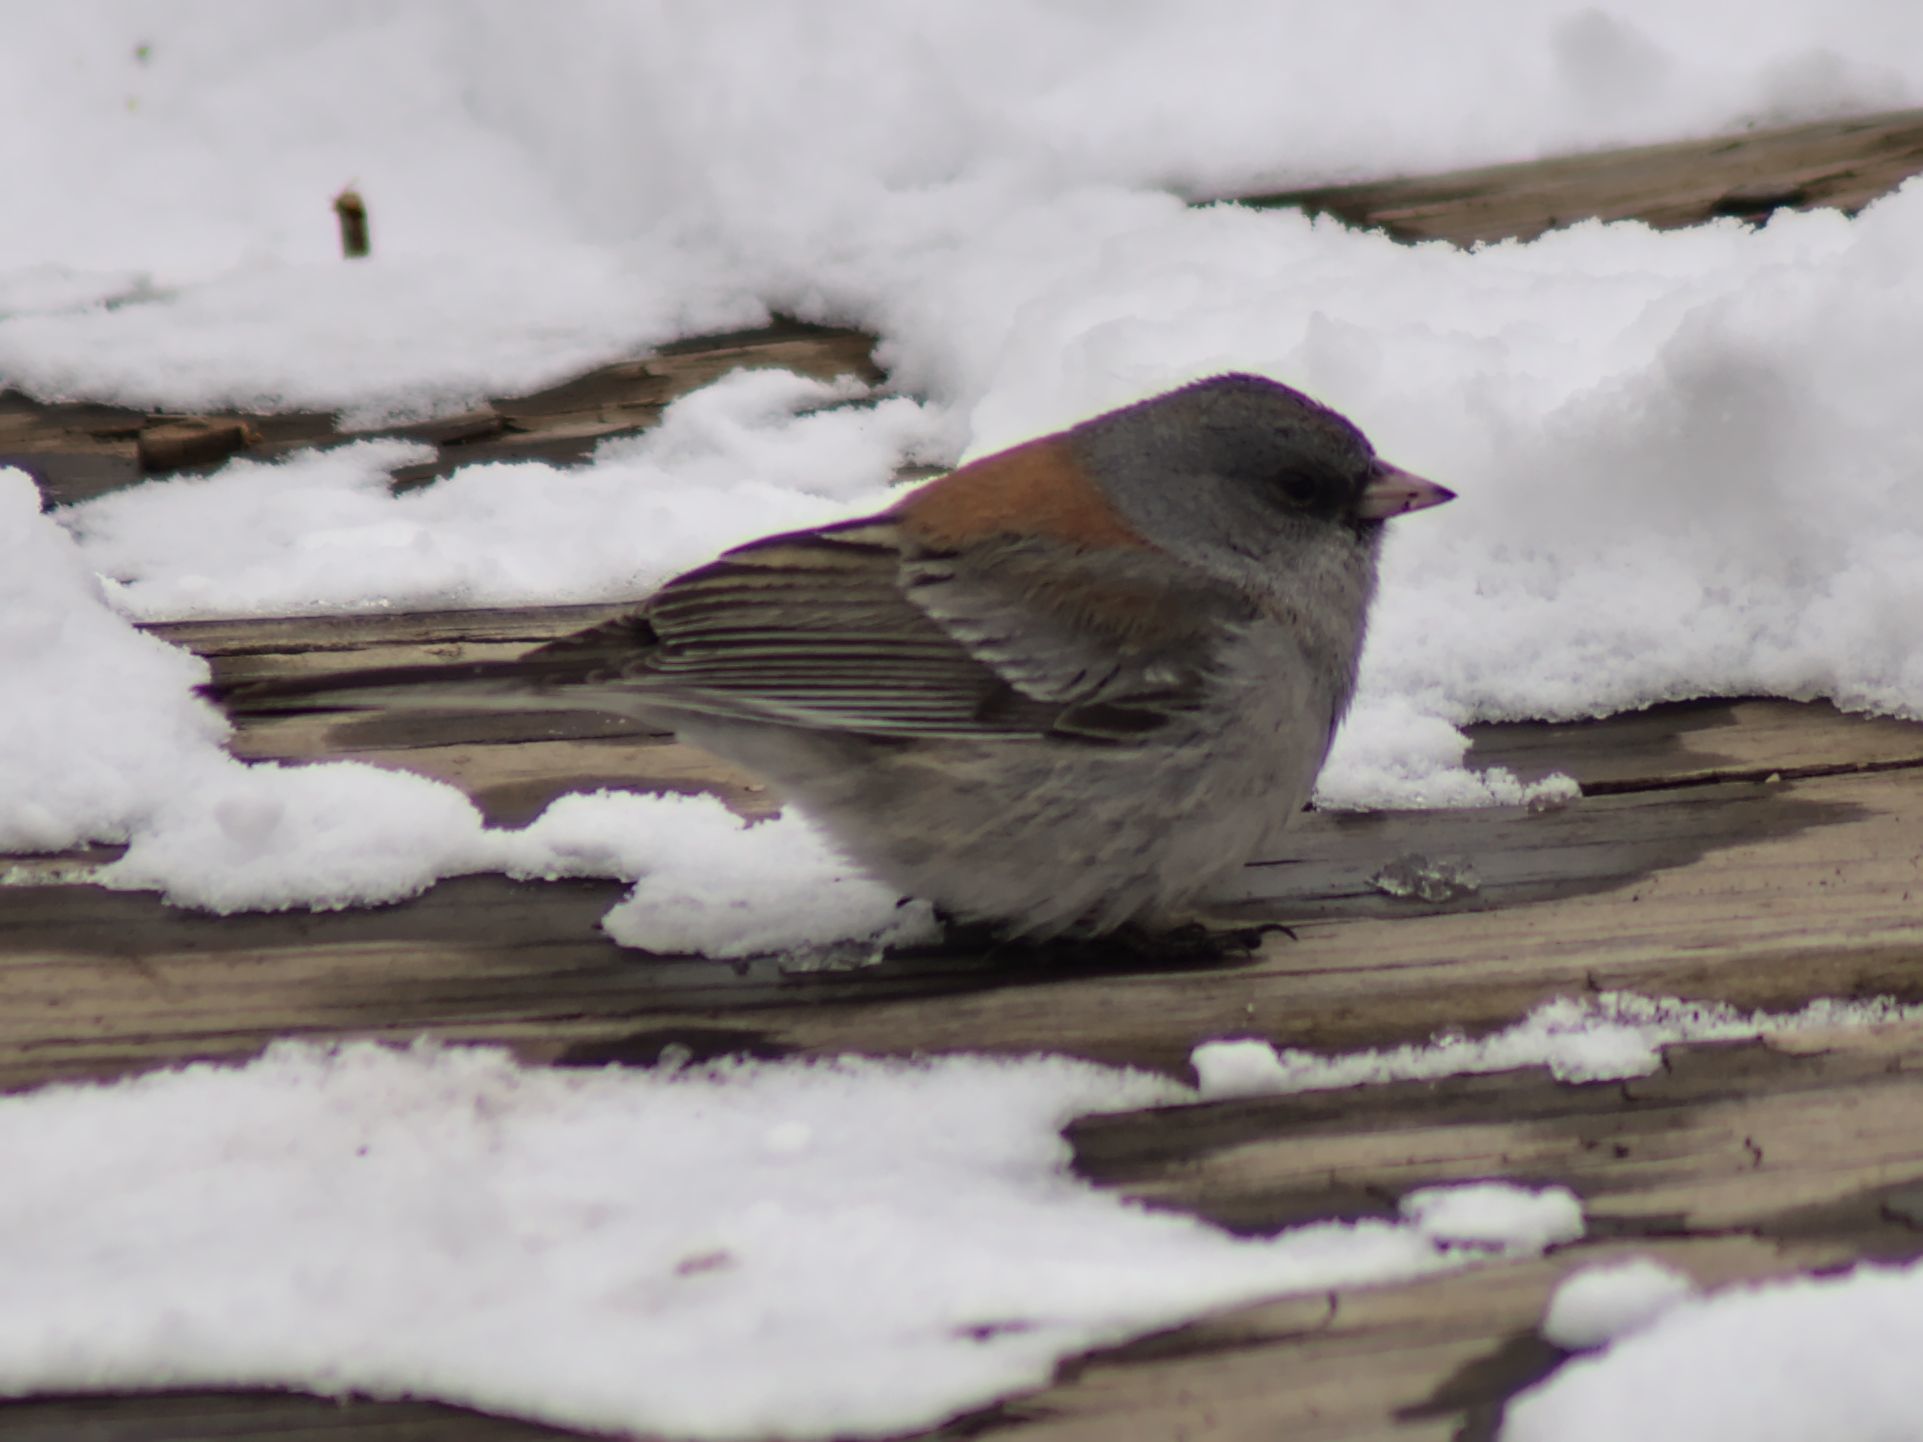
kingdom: Animalia
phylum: Chordata
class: Aves
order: Passeriformes
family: Passerellidae
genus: Junco
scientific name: Junco hyemalis
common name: Dark-eyed junco
